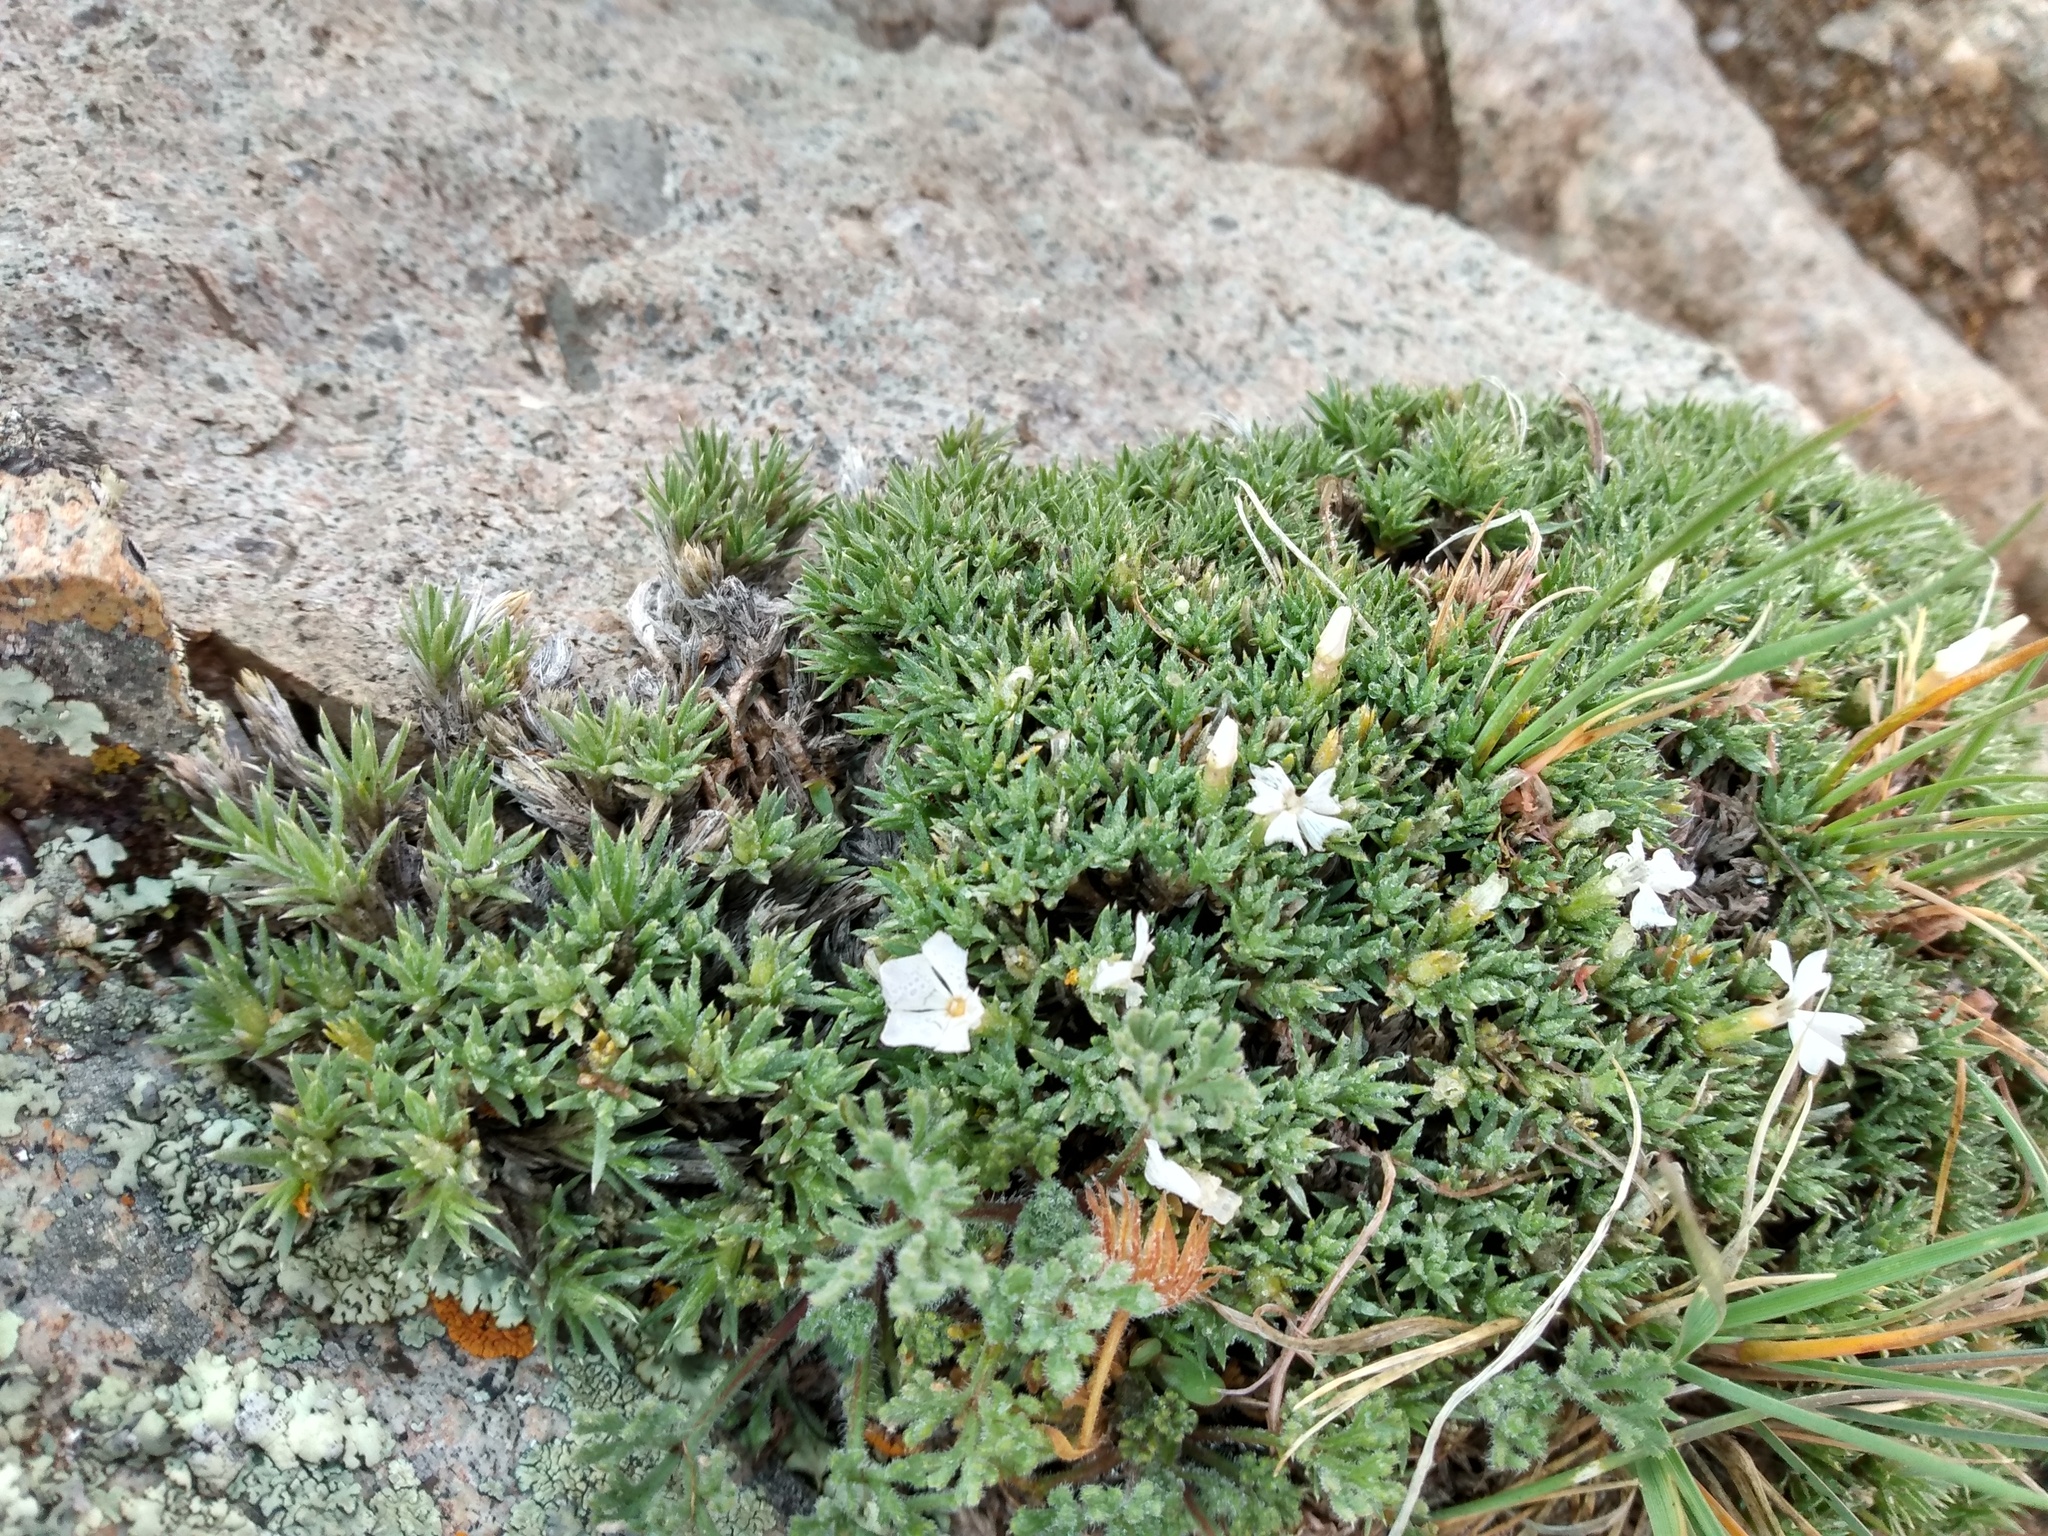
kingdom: Plantae
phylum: Tracheophyta
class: Magnoliopsida
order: Ericales
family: Polemoniaceae
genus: Phlox
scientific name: Phlox condensata
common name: Compact phlox
